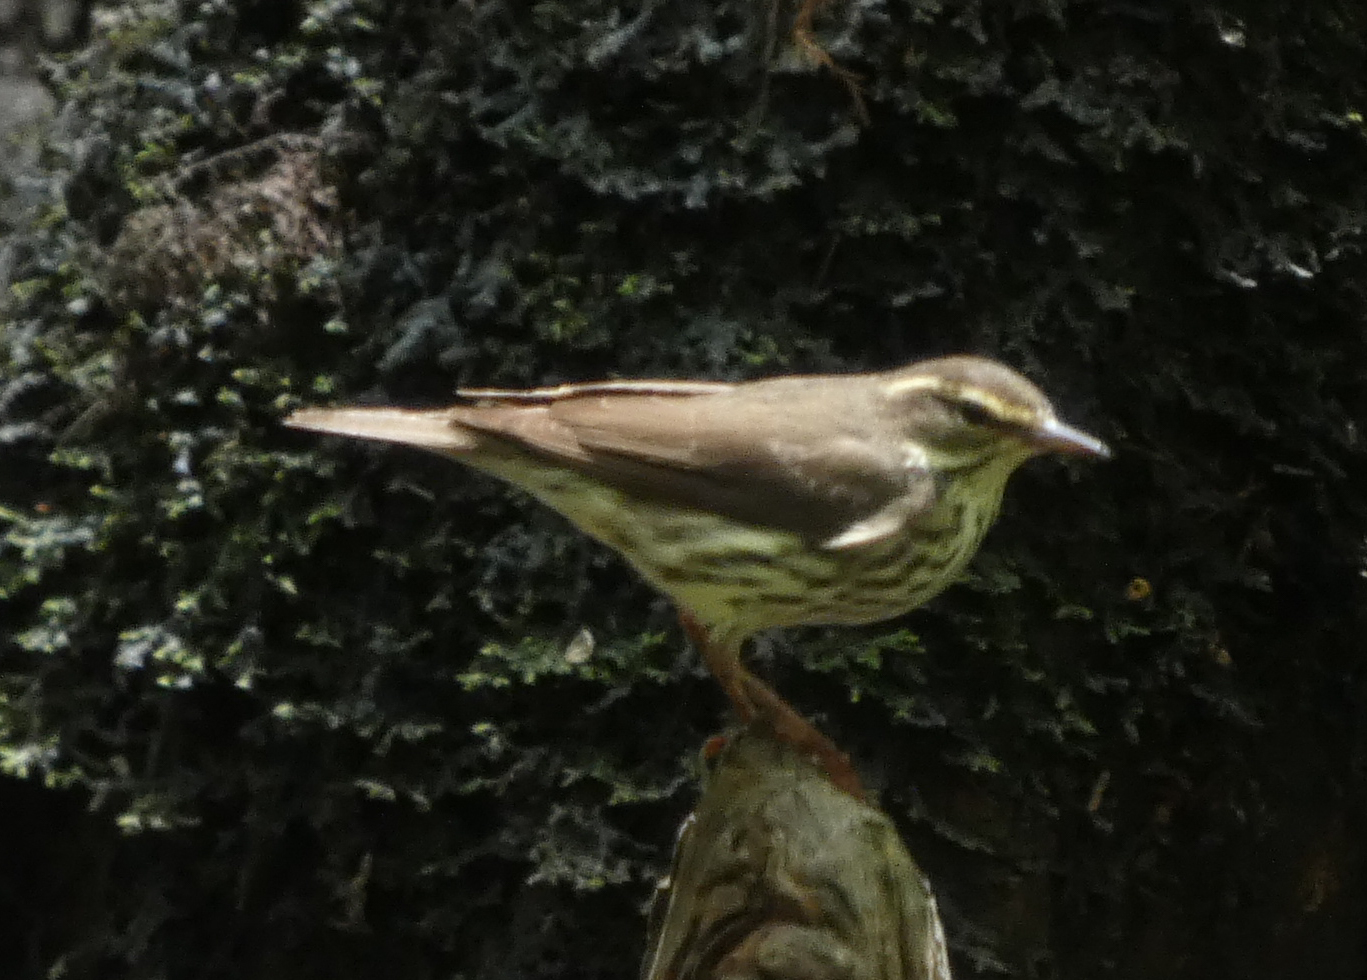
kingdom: Animalia
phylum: Chordata
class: Aves
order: Passeriformes
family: Parulidae
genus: Parkesia
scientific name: Parkesia motacilla
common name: Louisiana waterthrush
